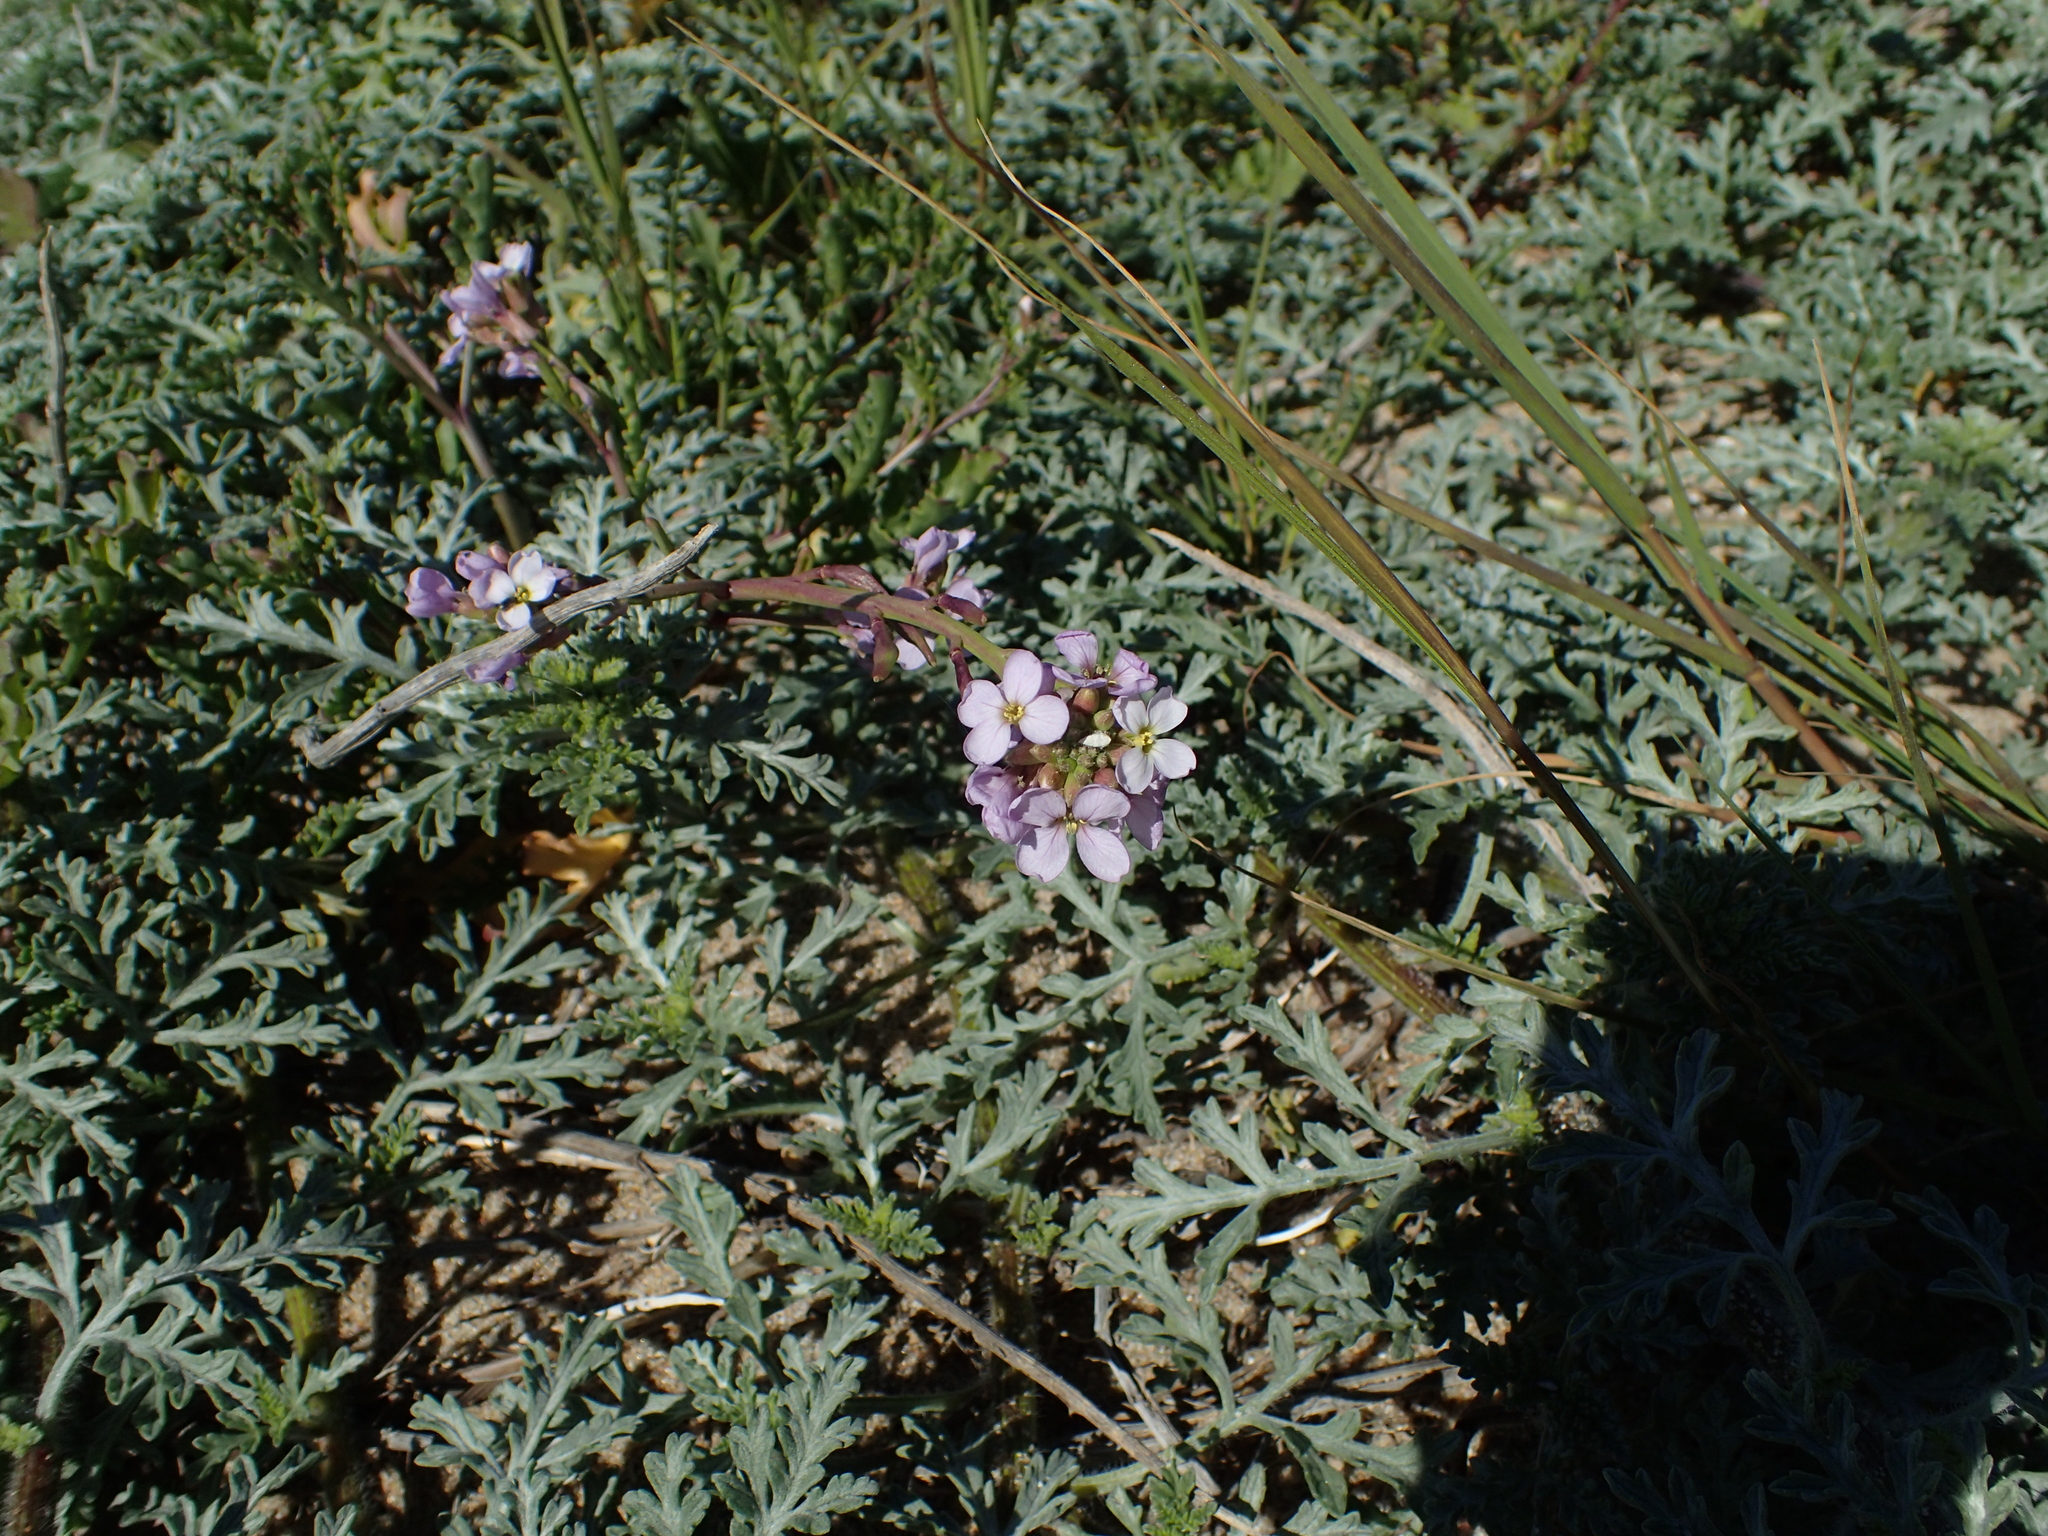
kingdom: Plantae
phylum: Tracheophyta
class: Magnoliopsida
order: Brassicales
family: Brassicaceae
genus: Cakile
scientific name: Cakile maritima
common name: Sea rocket
